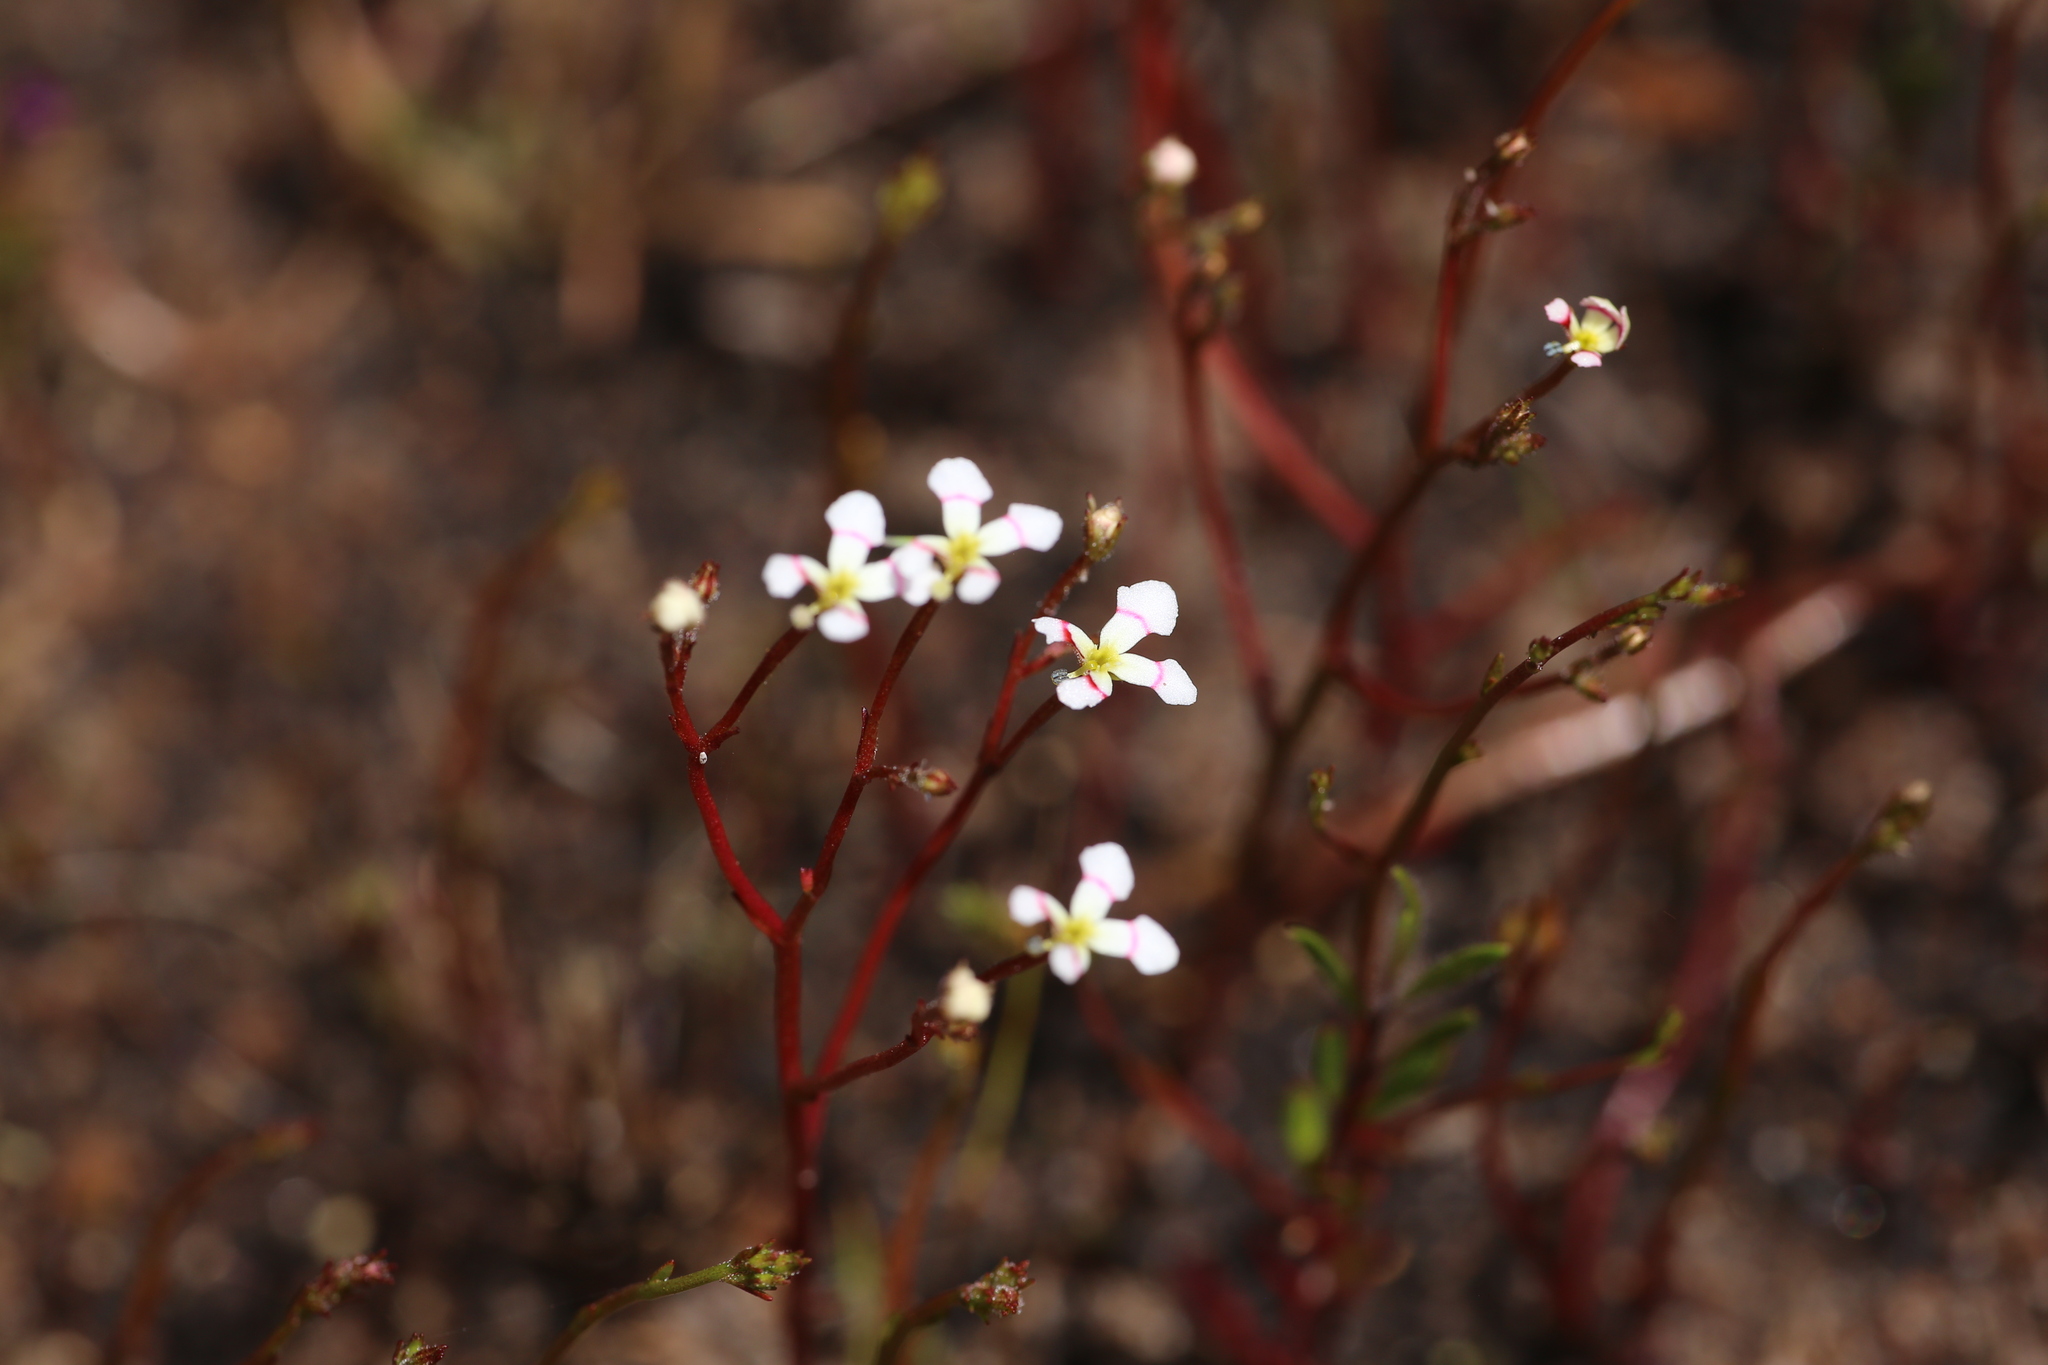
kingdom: Plantae
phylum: Tracheophyta
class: Magnoliopsida
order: Asterales
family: Stylidiaceae
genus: Stylidium
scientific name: Stylidium utricularioides
